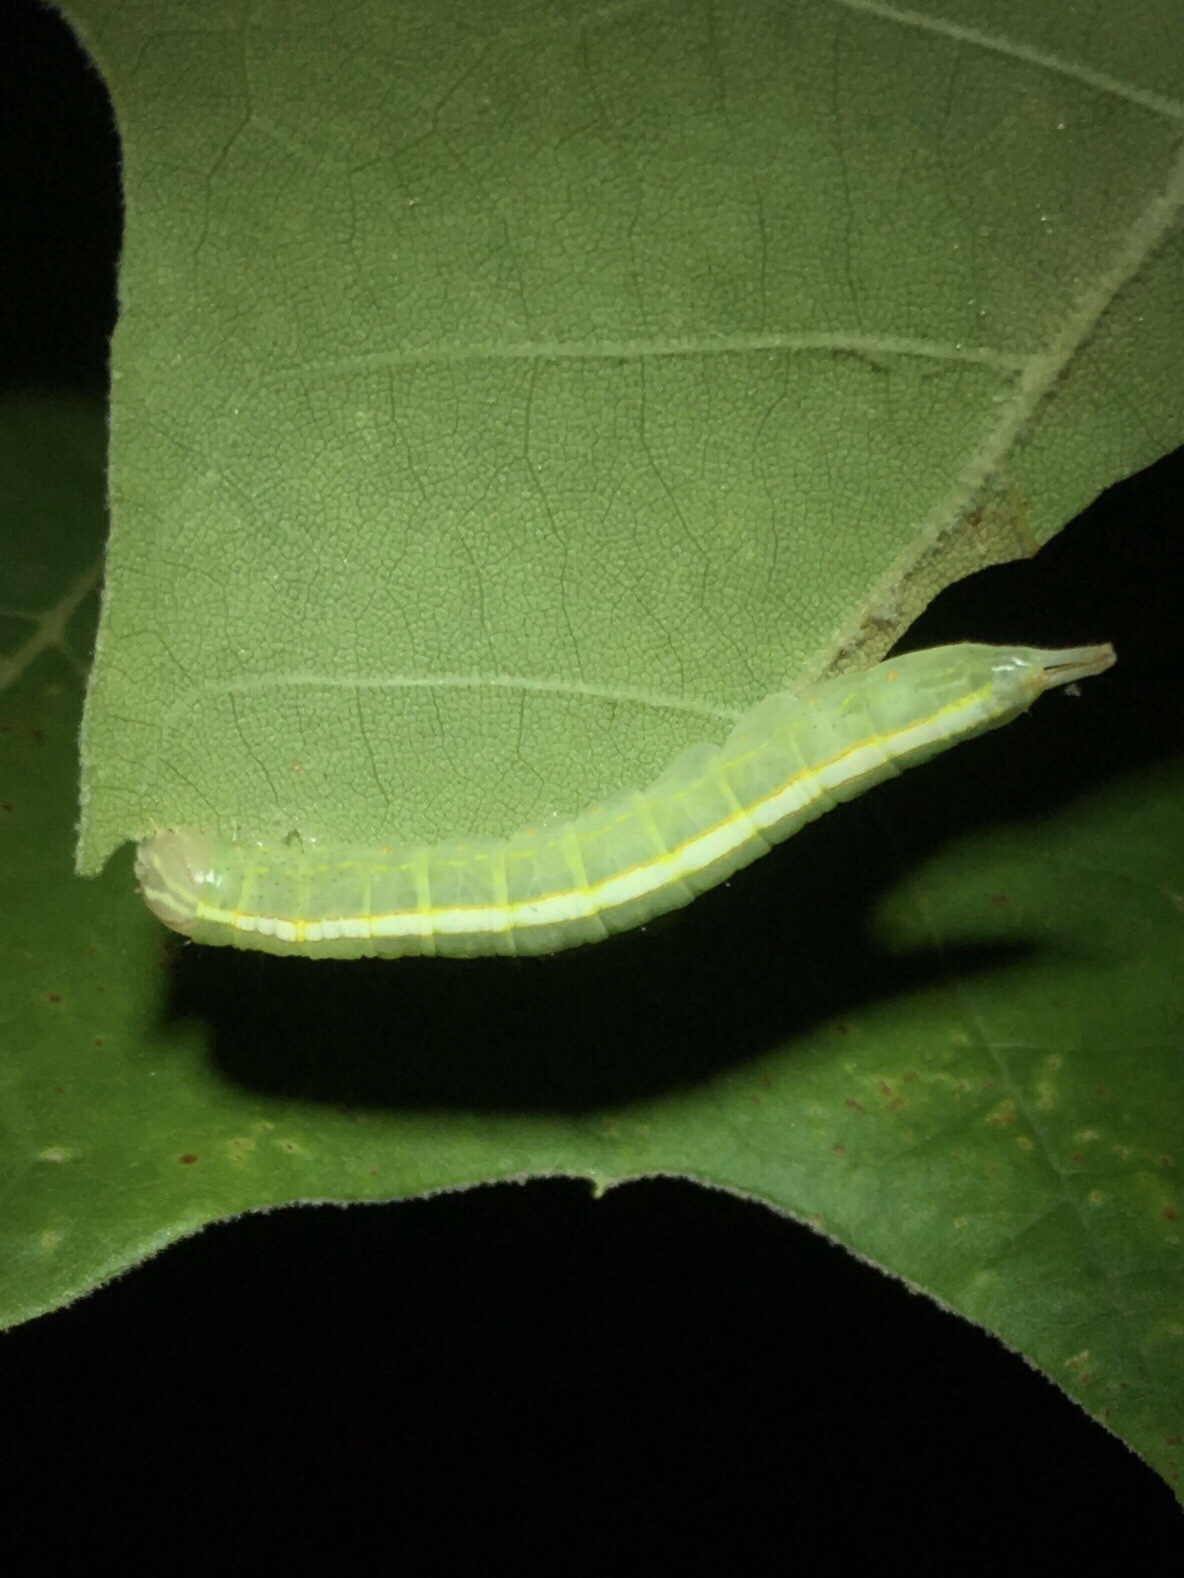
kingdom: Animalia
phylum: Arthropoda
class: Insecta
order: Lepidoptera
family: Notodontidae
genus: Misogada
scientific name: Misogada unicolor
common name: Drab prominent
